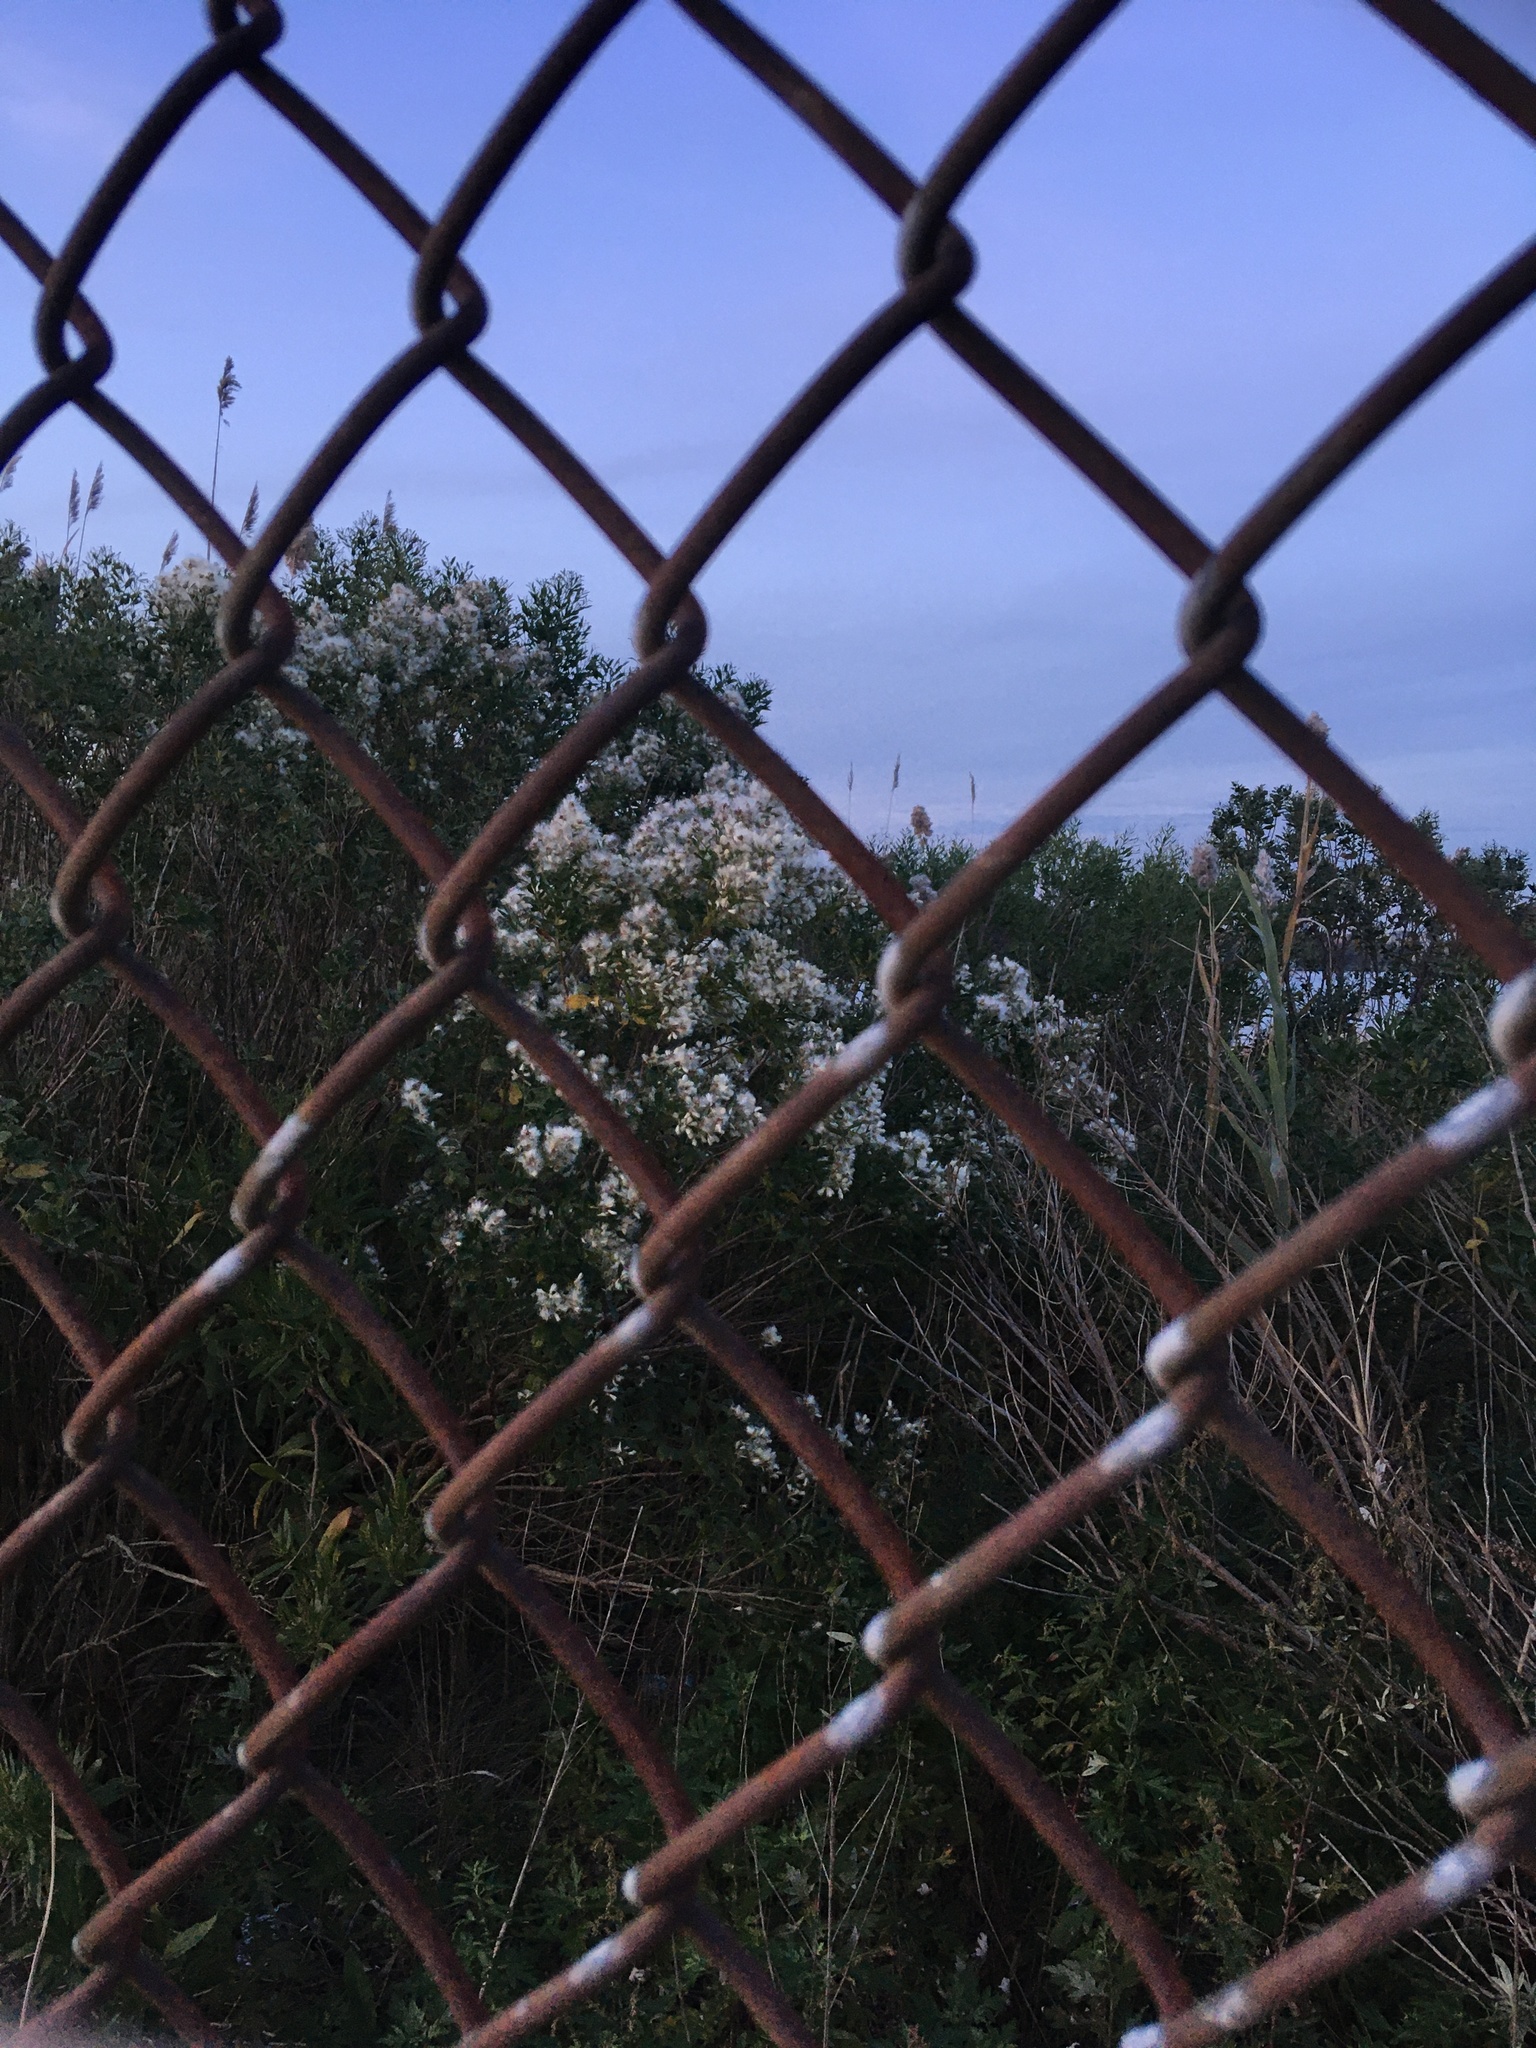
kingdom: Plantae
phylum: Tracheophyta
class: Magnoliopsida
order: Asterales
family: Asteraceae
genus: Baccharis
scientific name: Baccharis halimifolia
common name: Eastern baccharis
